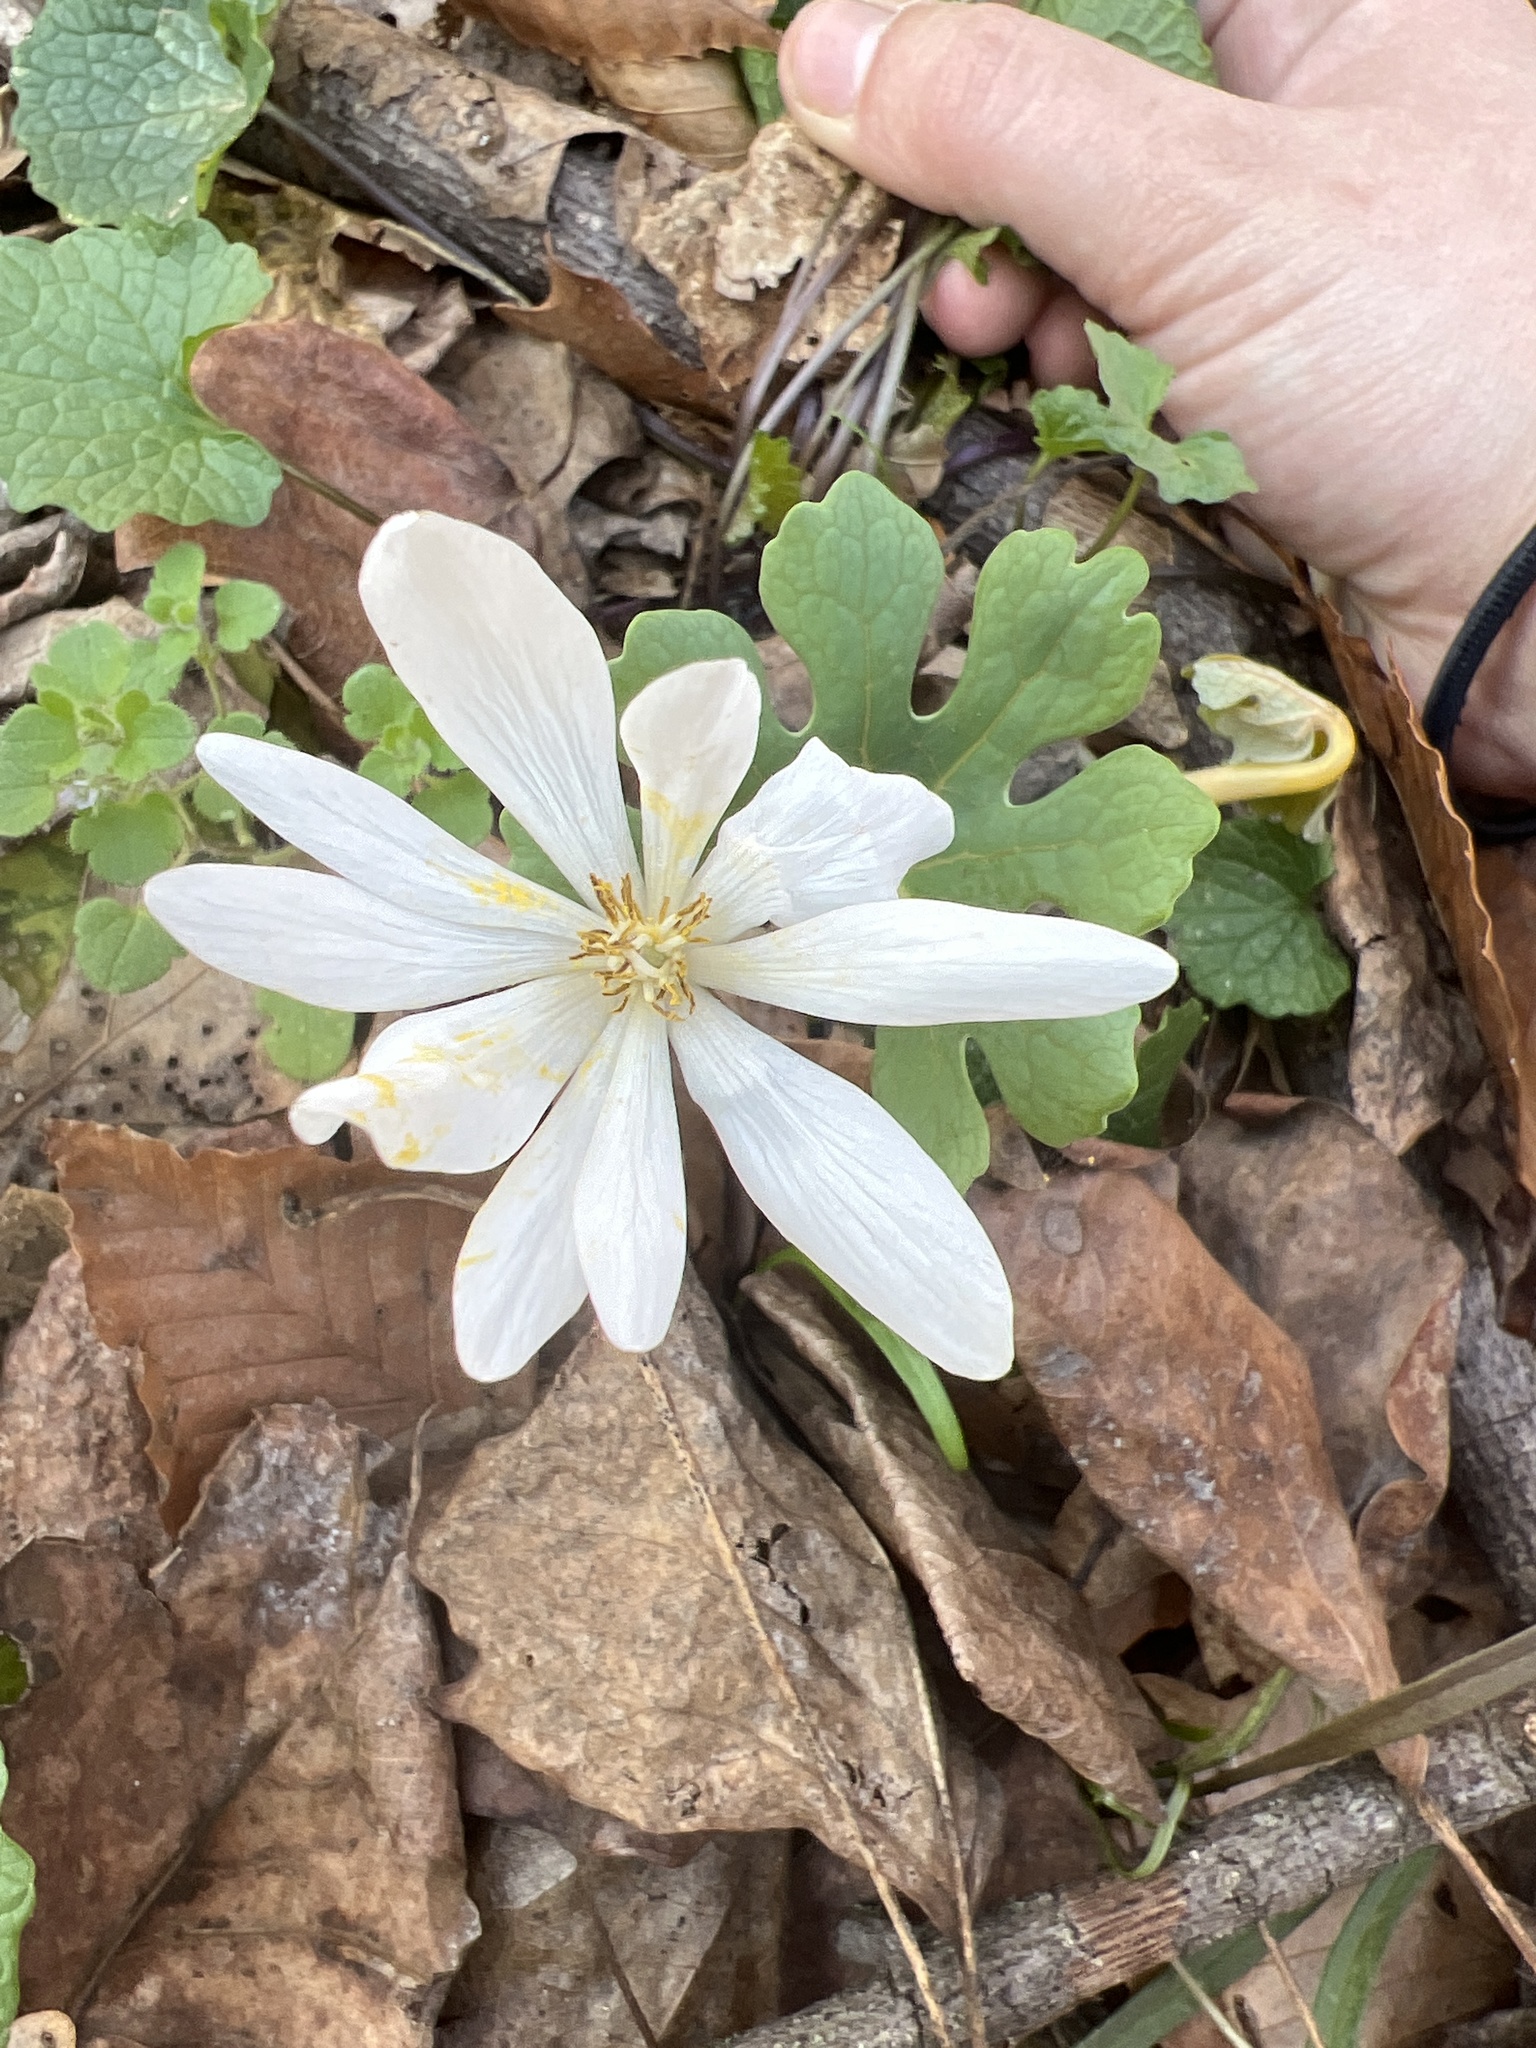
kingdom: Plantae
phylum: Tracheophyta
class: Magnoliopsida
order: Ranunculales
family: Papaveraceae
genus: Sanguinaria
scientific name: Sanguinaria canadensis
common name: Bloodroot
